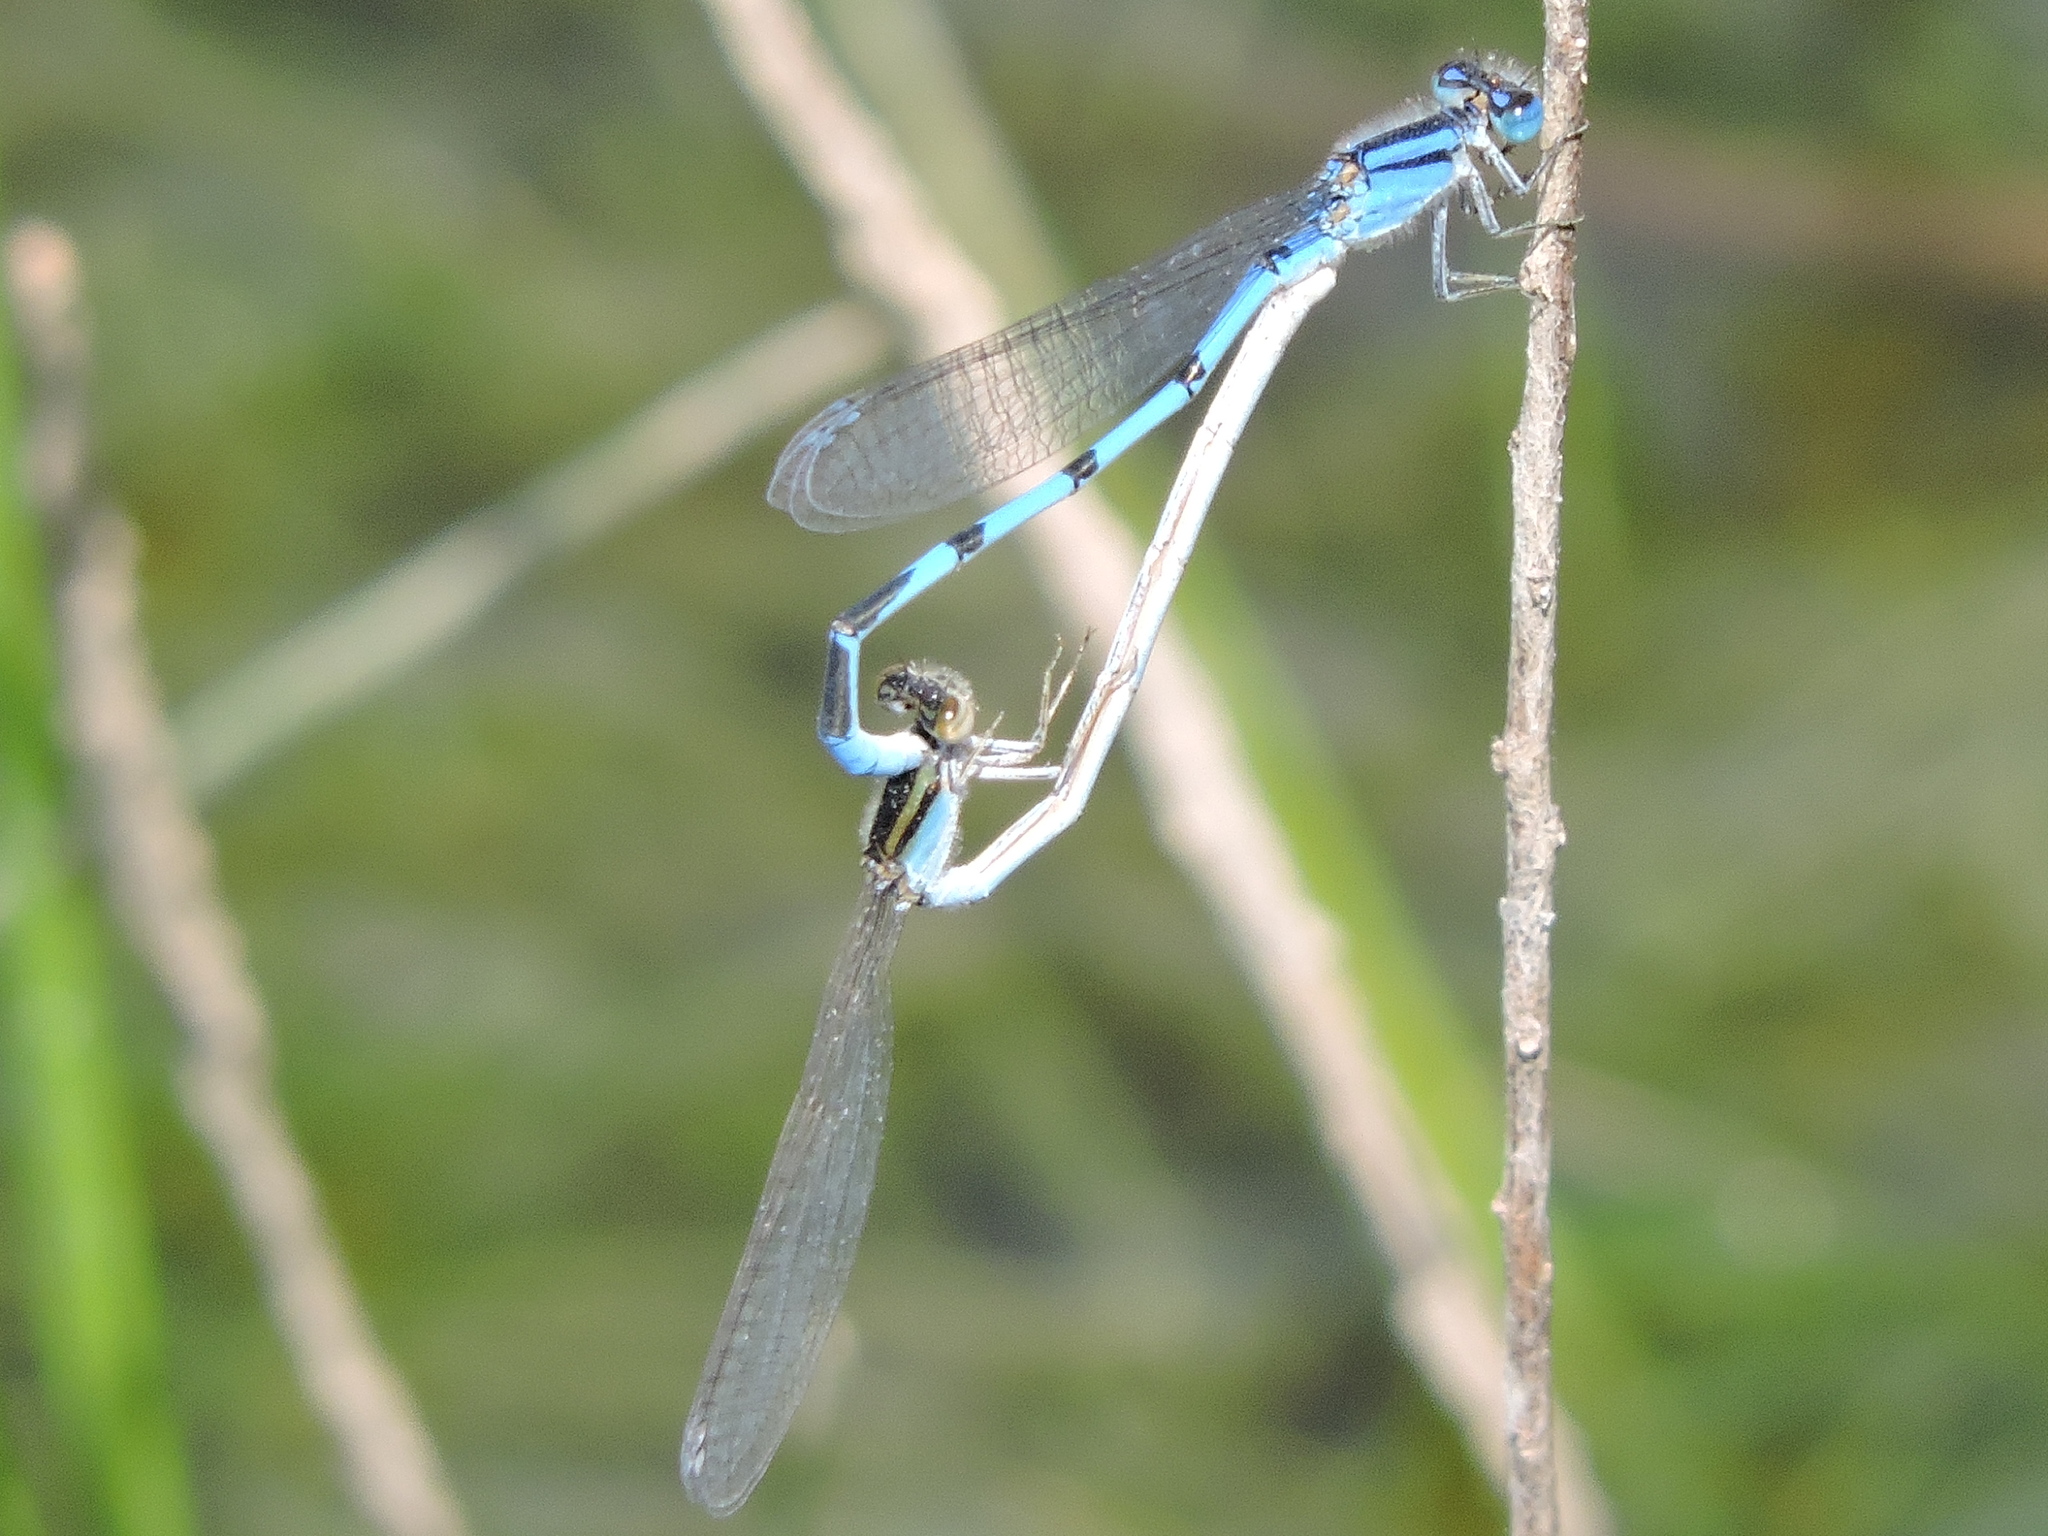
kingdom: Animalia
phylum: Arthropoda
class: Insecta
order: Odonata
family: Coenagrionidae
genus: Enallagma
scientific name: Enallagma civile
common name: Damselfly
